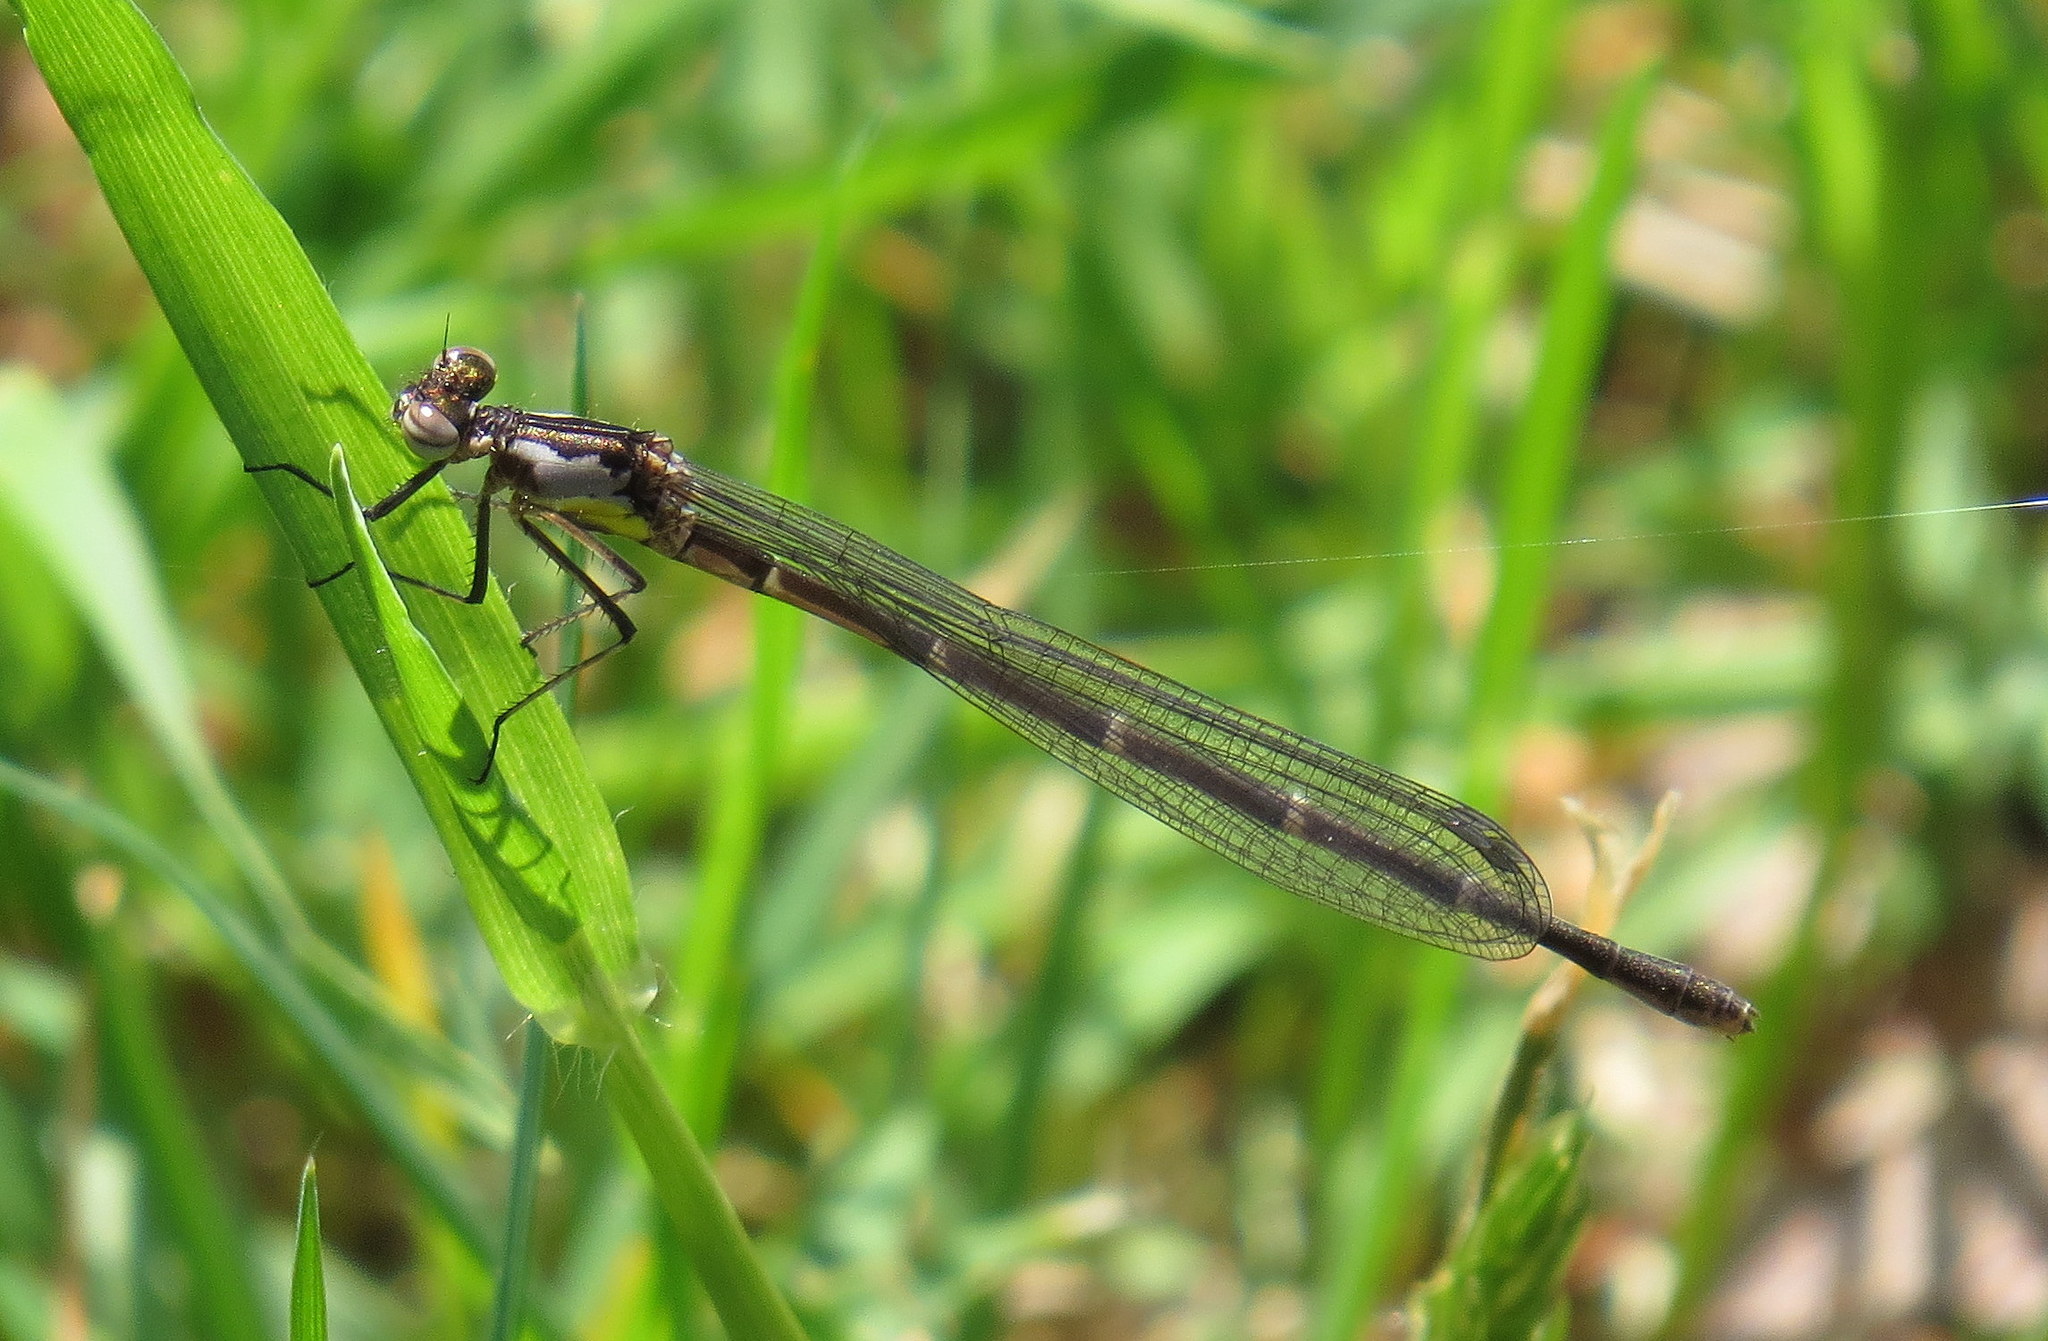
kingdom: Animalia
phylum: Arthropoda
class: Insecta
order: Odonata
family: Coenagrionidae
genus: Chromagrion
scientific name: Chromagrion conditum
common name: Aurora damsel
